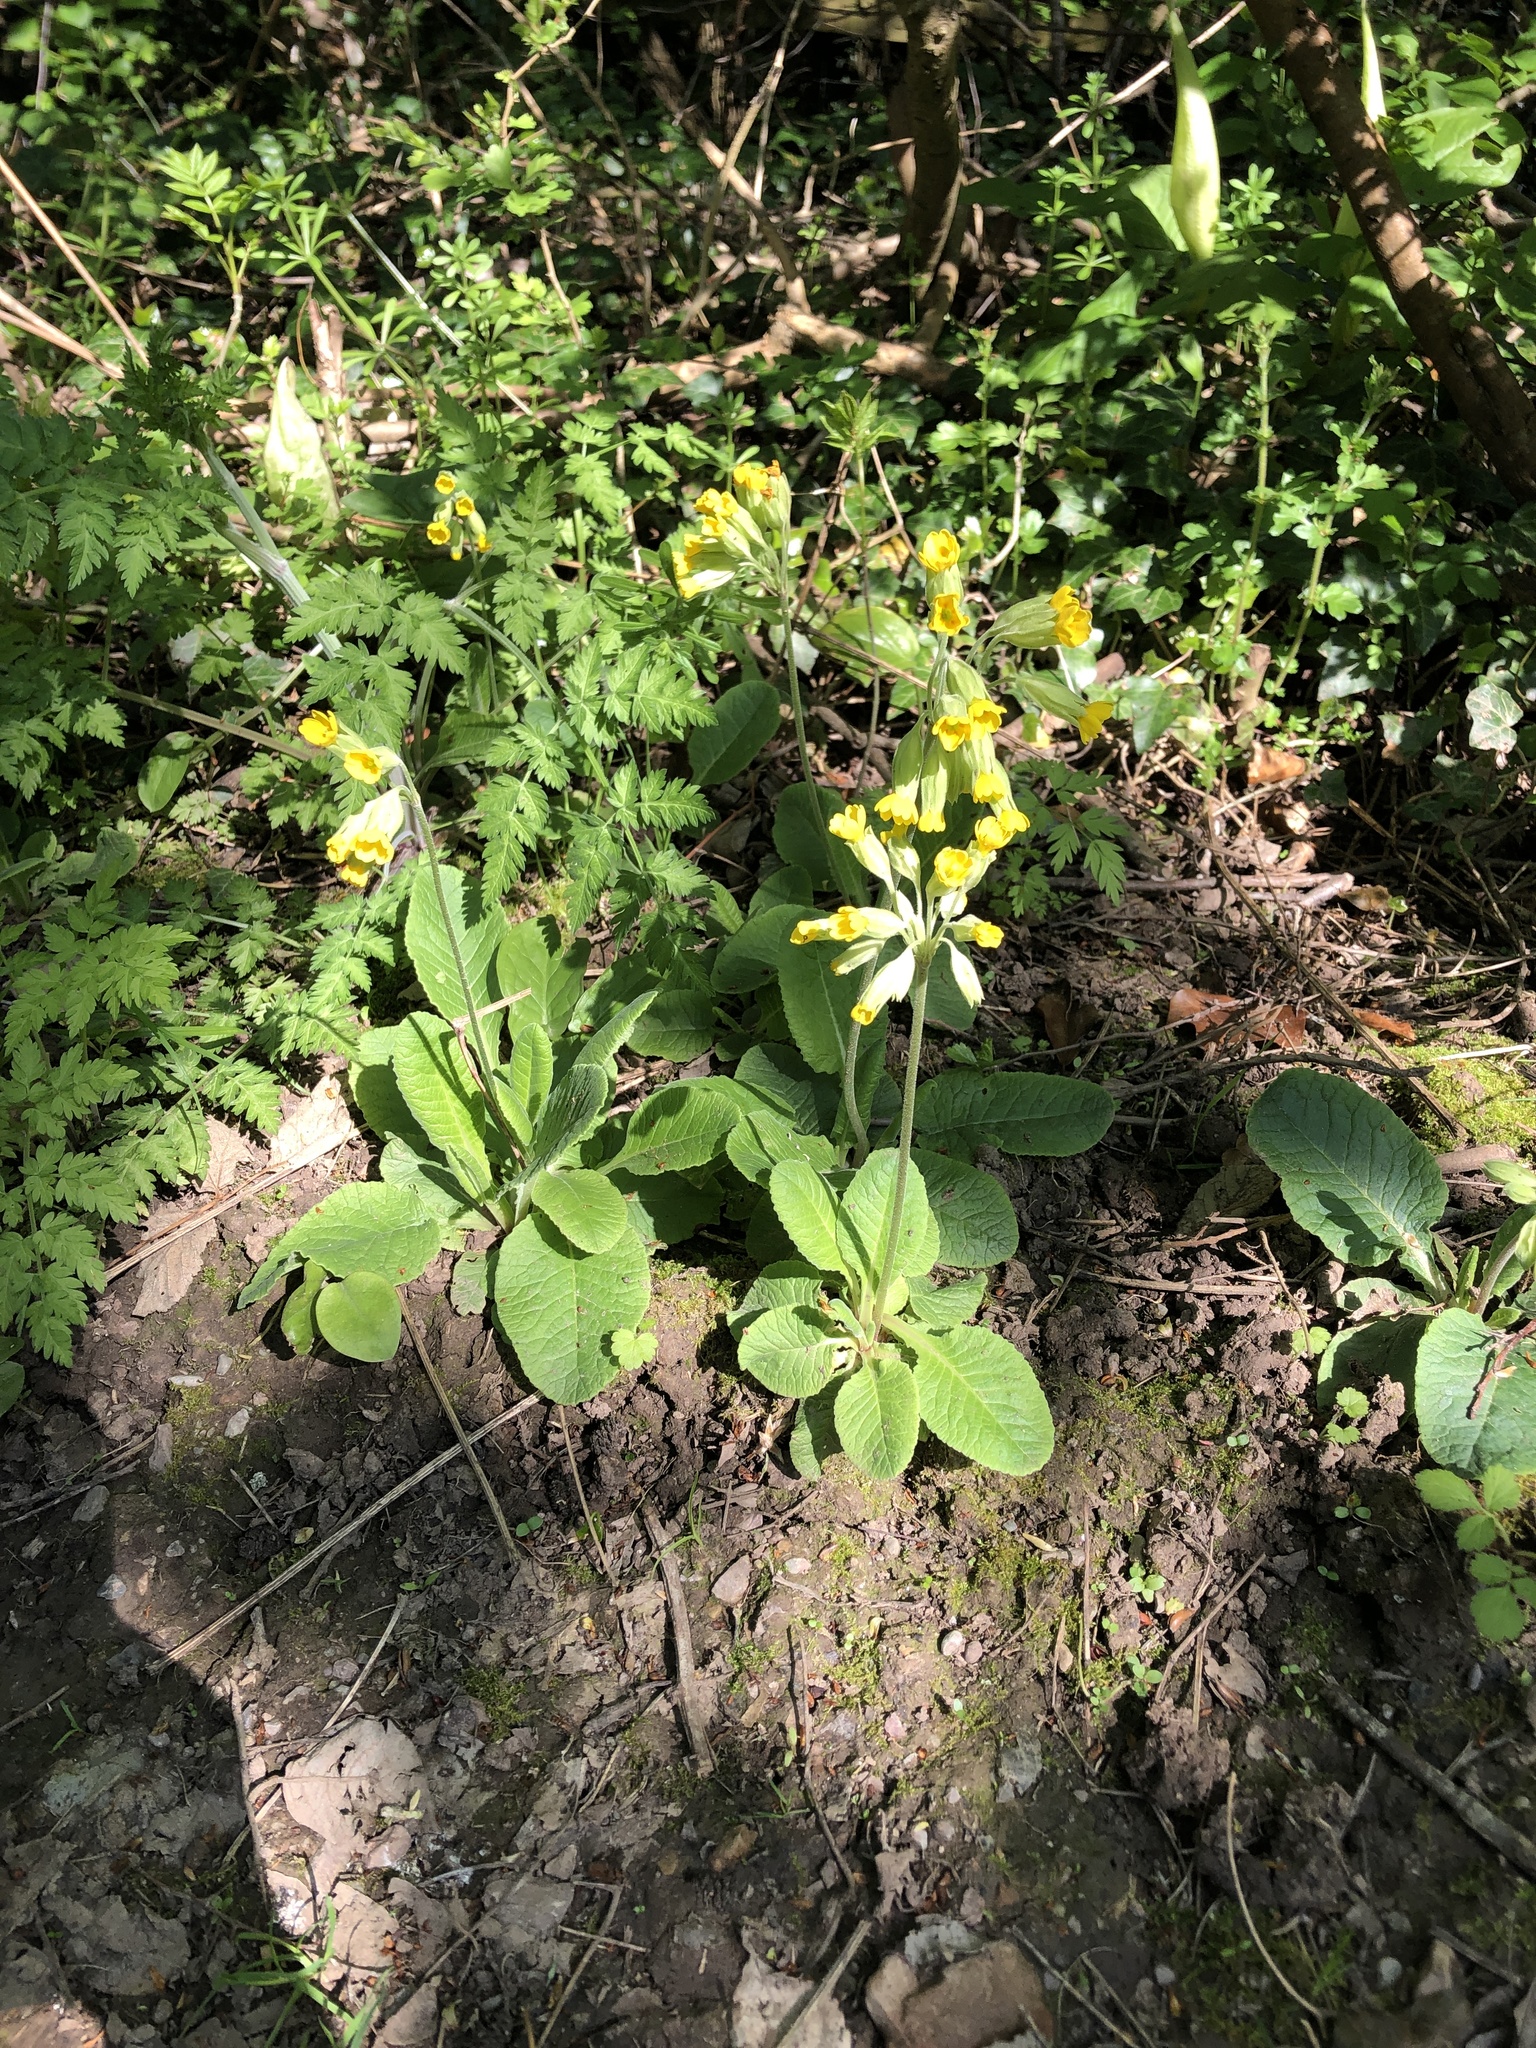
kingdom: Plantae
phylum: Tracheophyta
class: Magnoliopsida
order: Ericales
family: Primulaceae
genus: Primula
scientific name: Primula veris
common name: Cowslip
